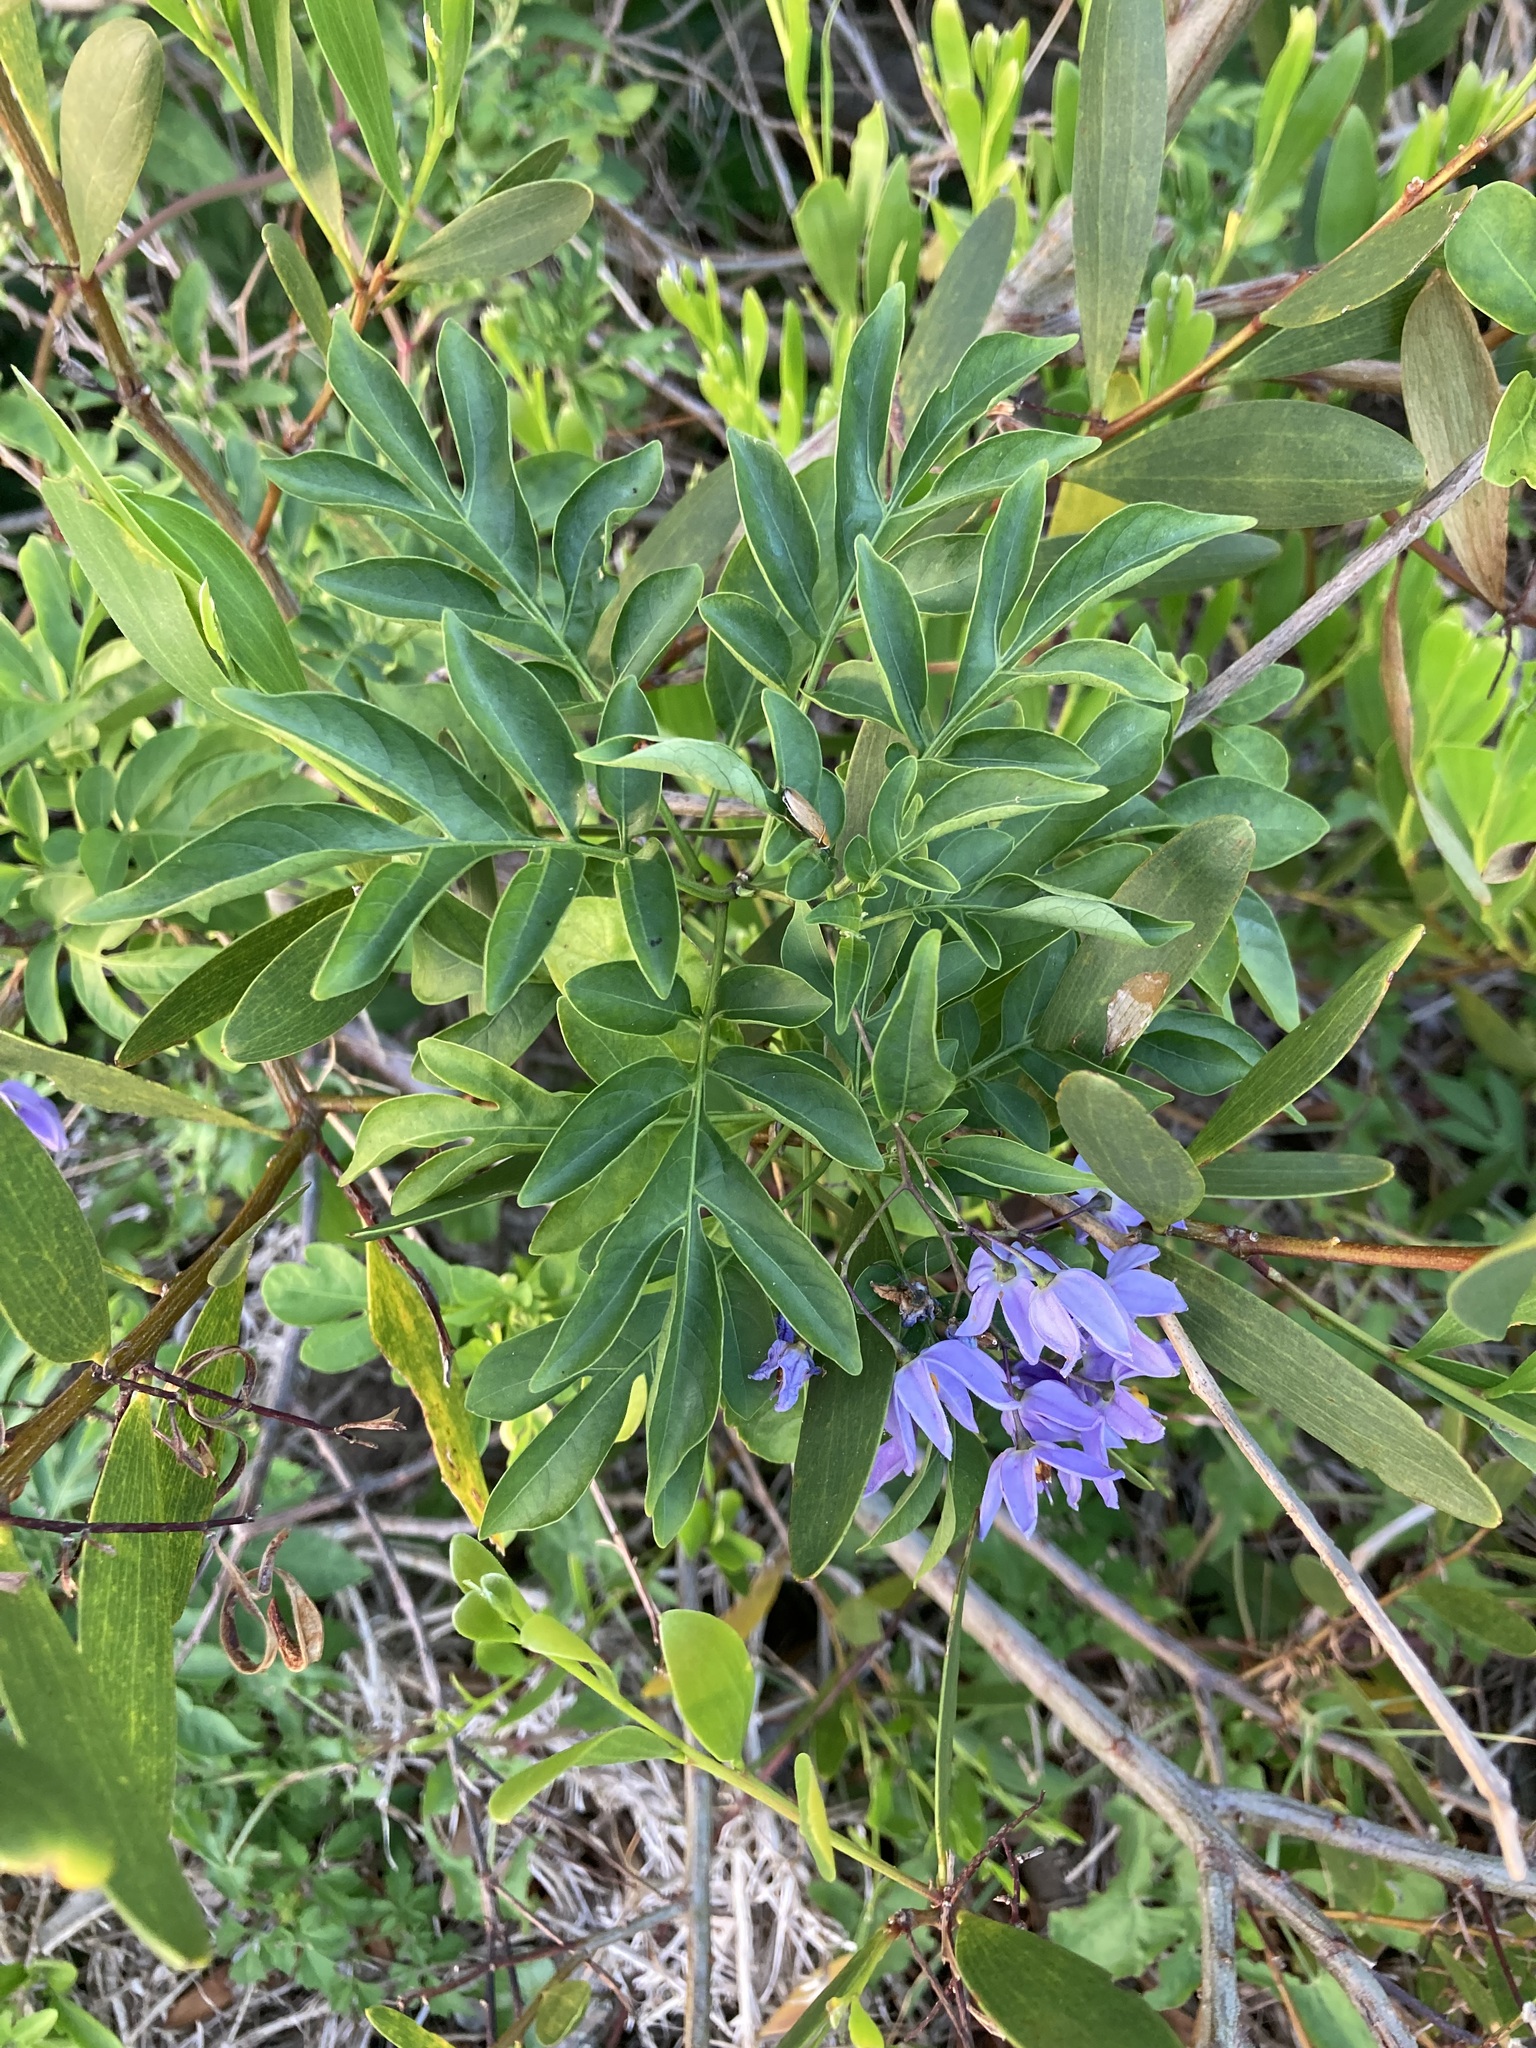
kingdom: Plantae
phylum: Tracheophyta
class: Magnoliopsida
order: Solanales
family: Solanaceae
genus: Solanum
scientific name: Solanum seaforthianum
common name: Brazilian nightshade
